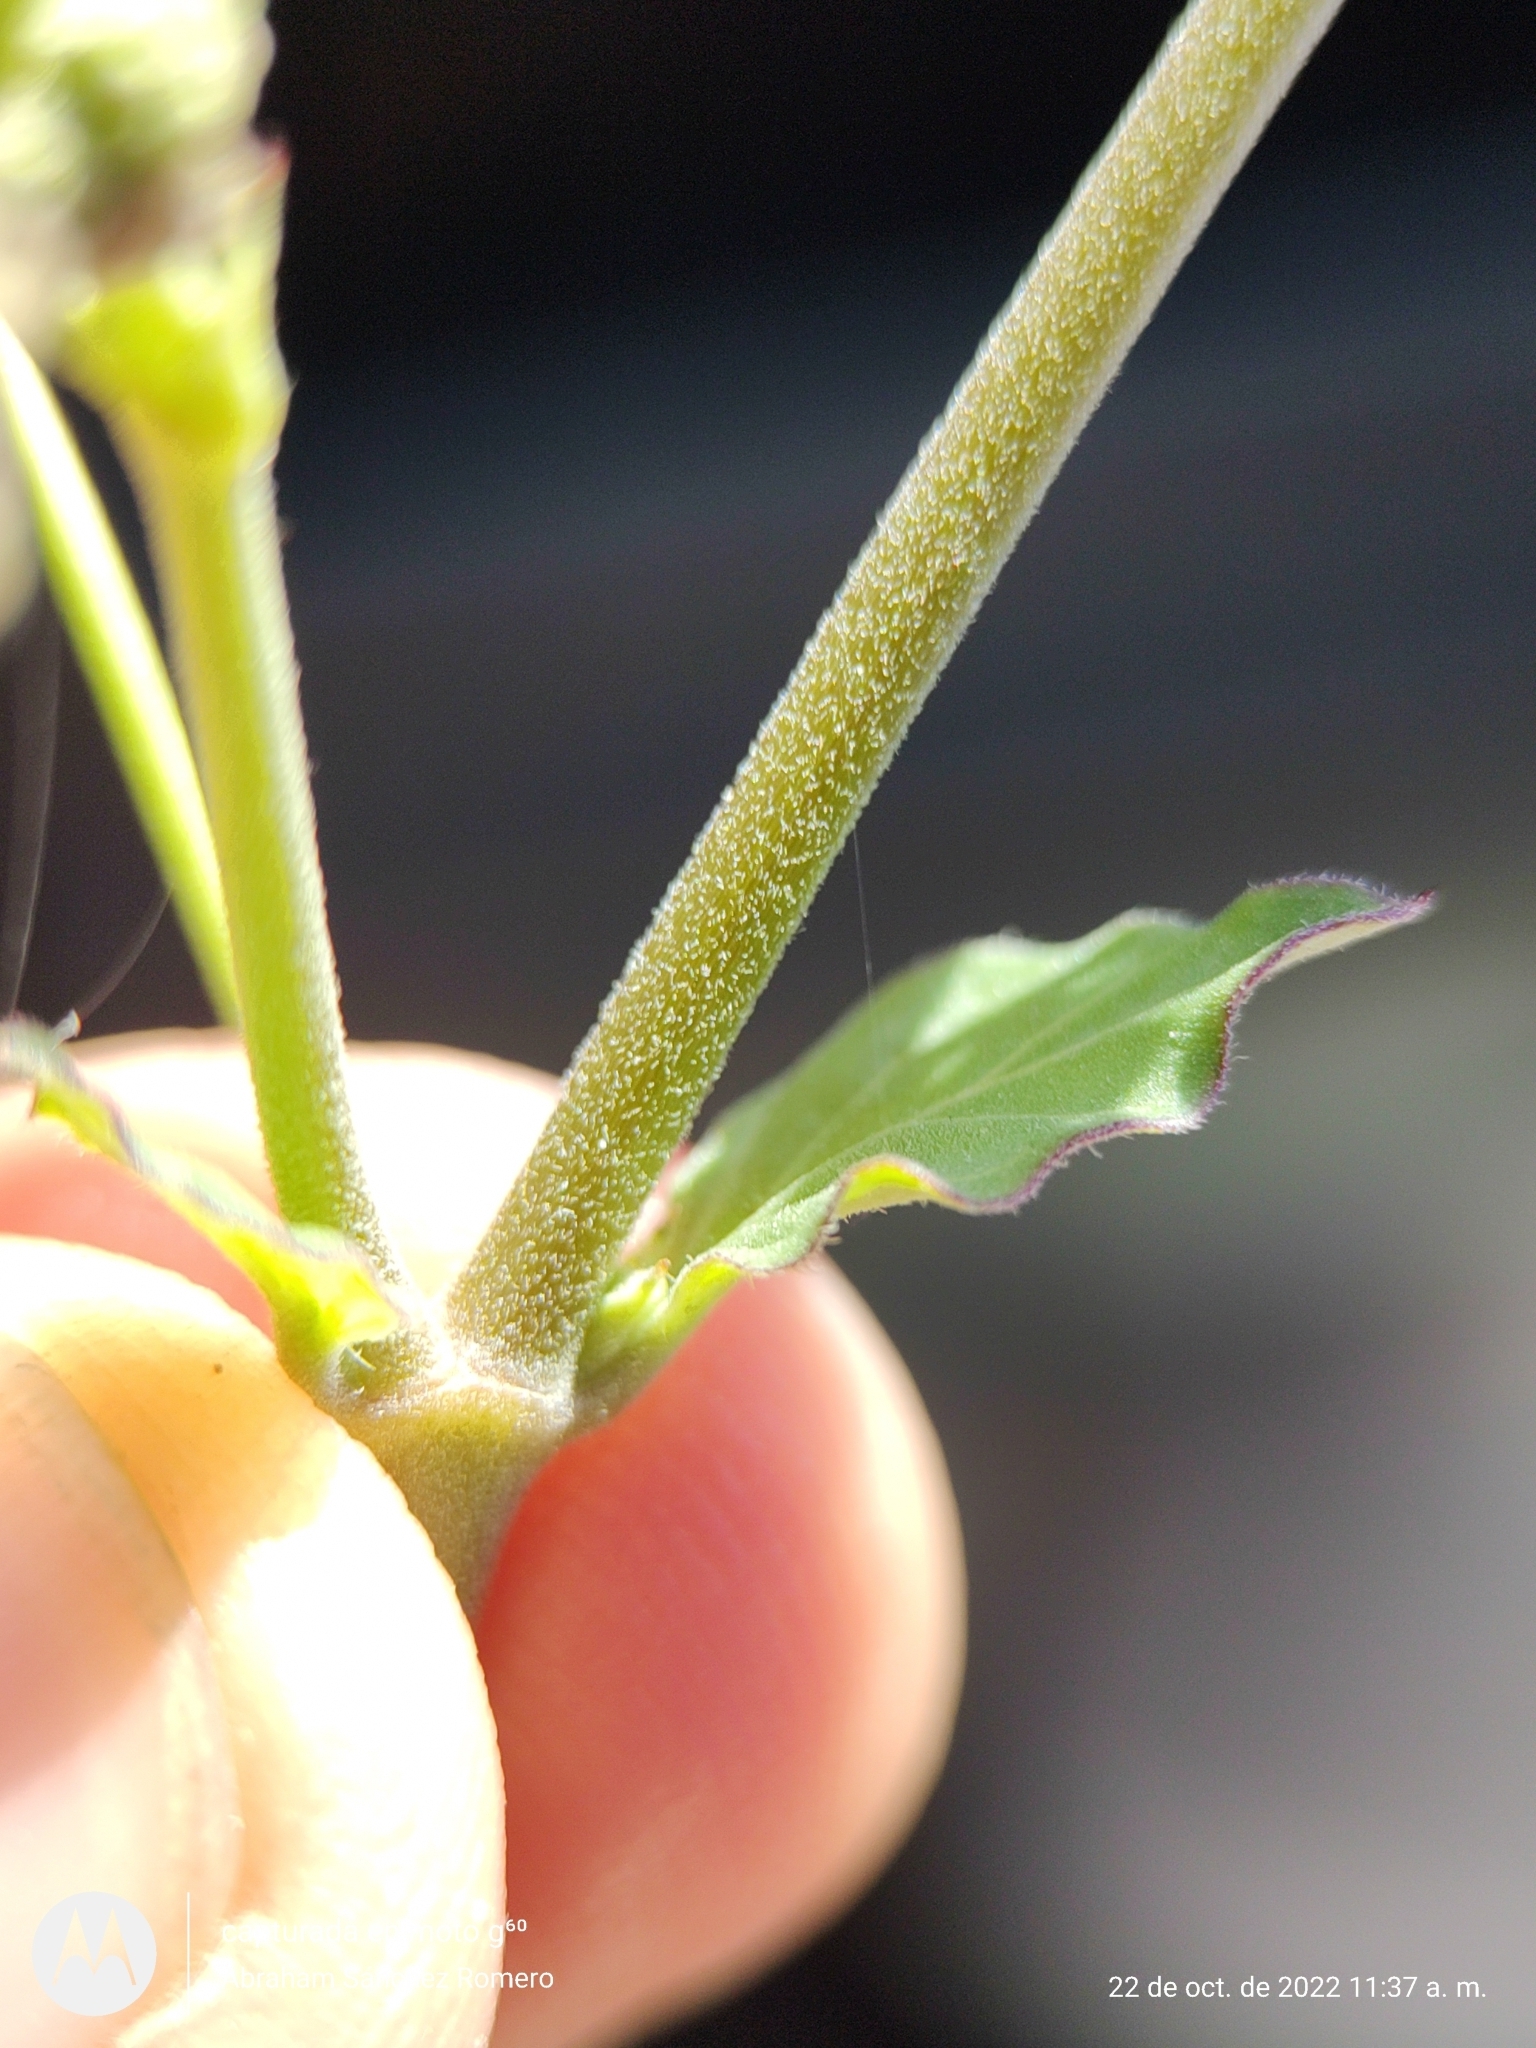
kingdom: Plantae
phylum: Tracheophyta
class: Magnoliopsida
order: Caryophyllales
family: Nyctaginaceae
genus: Boerhavia
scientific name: Boerhavia coccinea
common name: Scarlet spiderling
